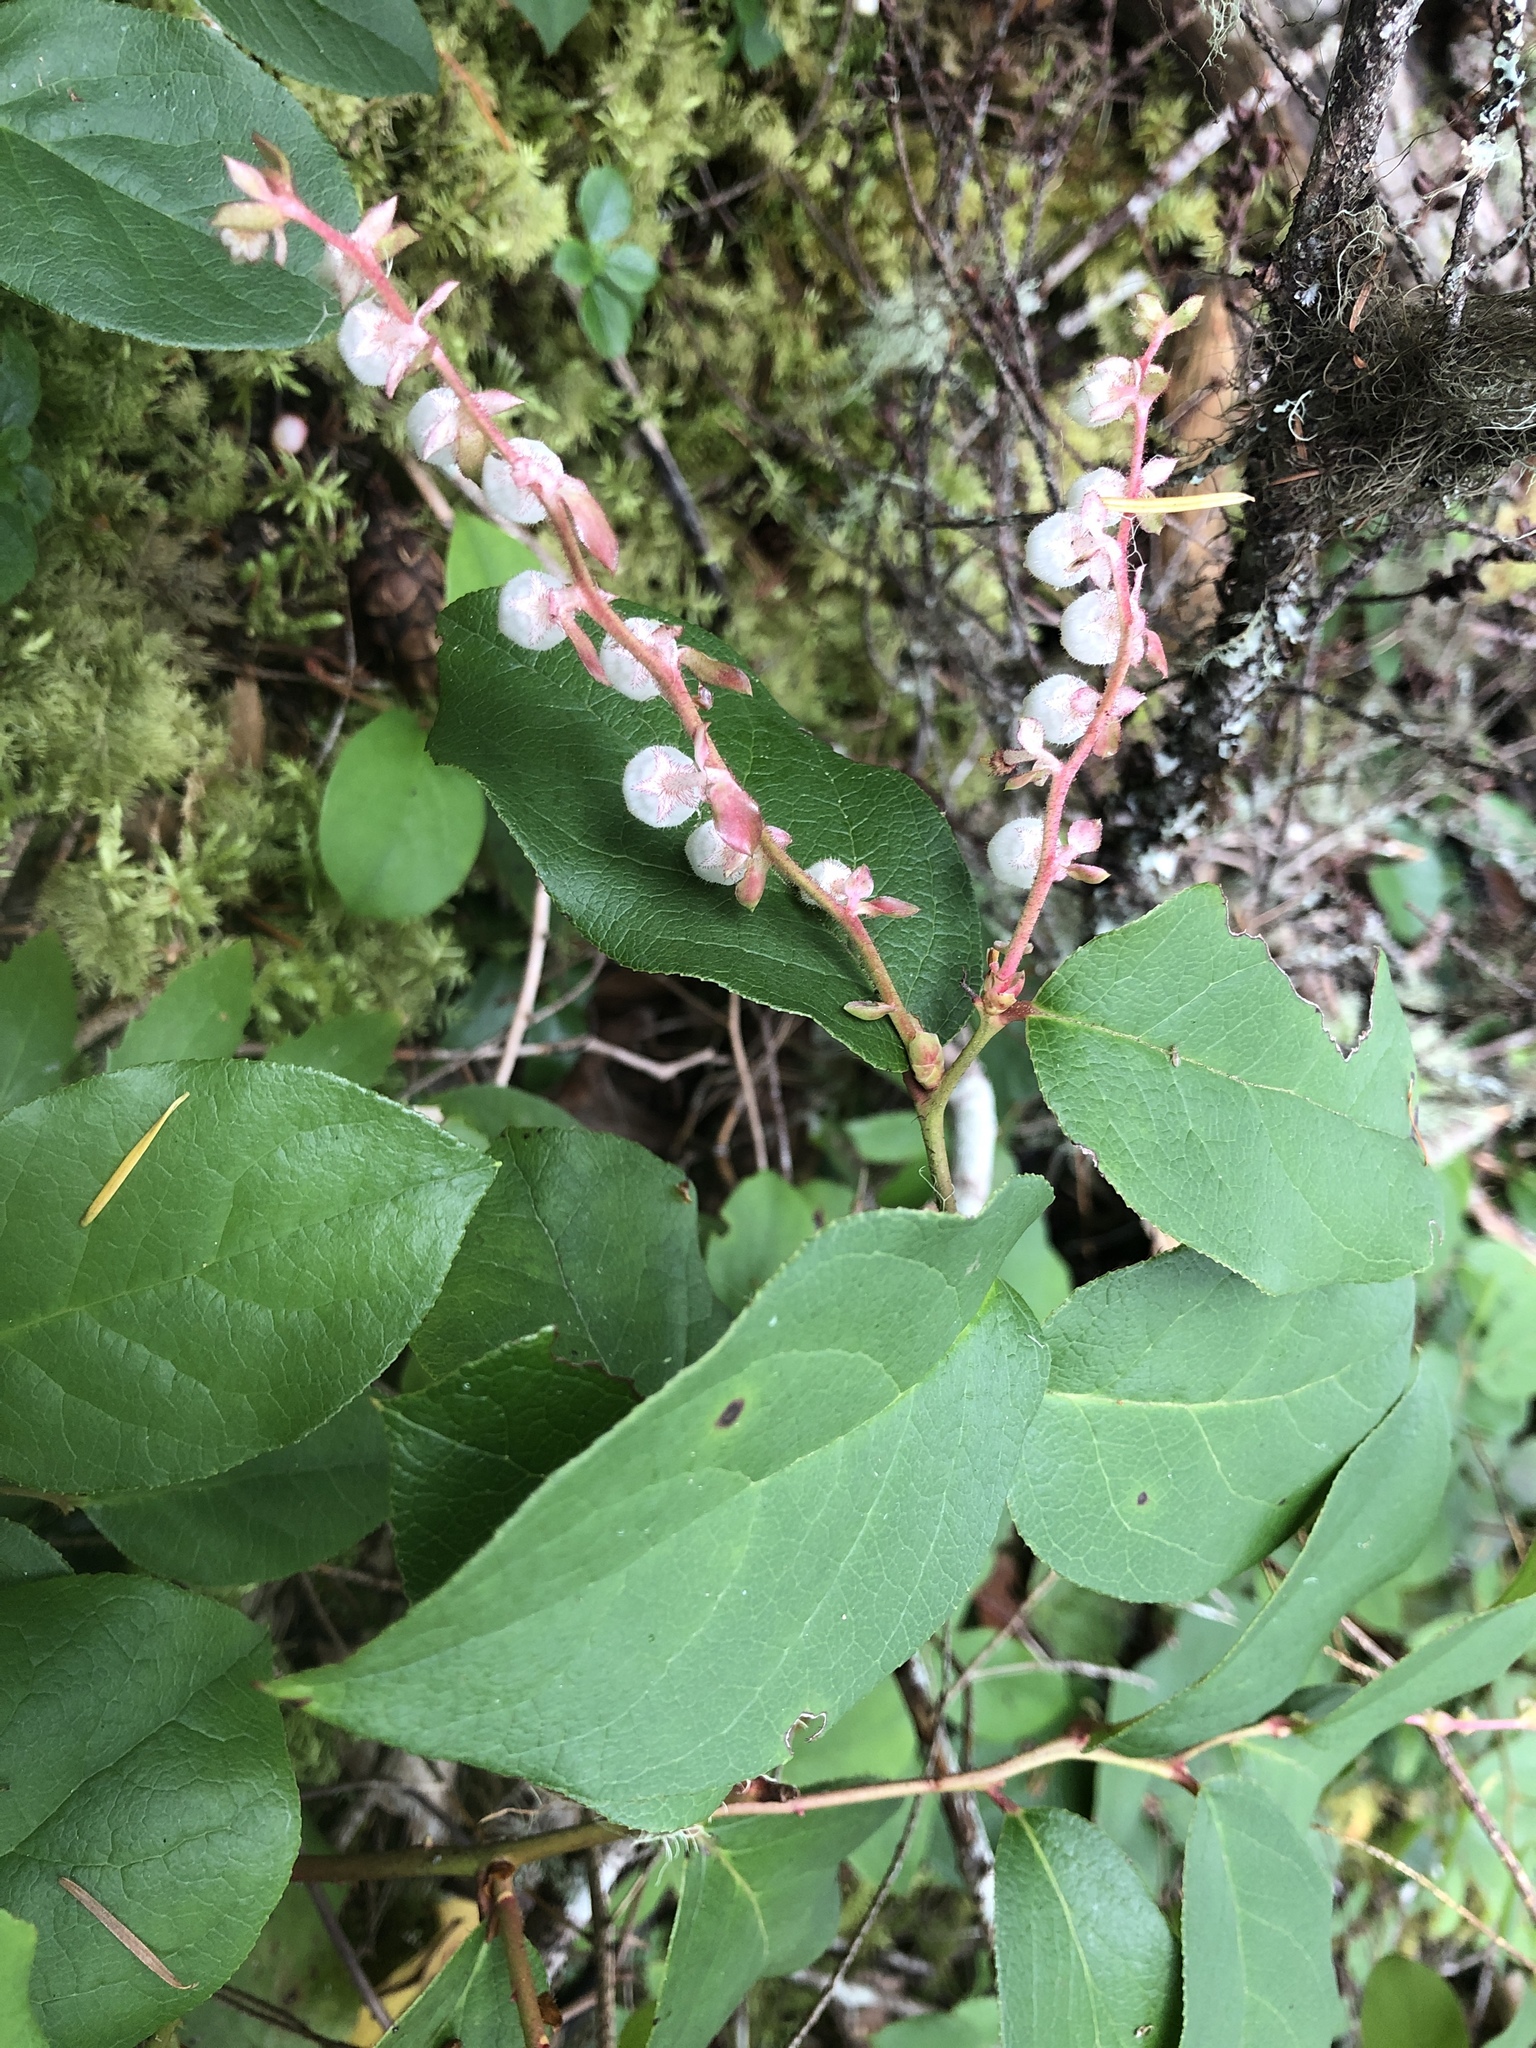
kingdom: Plantae
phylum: Tracheophyta
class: Magnoliopsida
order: Ericales
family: Ericaceae
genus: Gaultheria
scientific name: Gaultheria shallon
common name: Shallon
